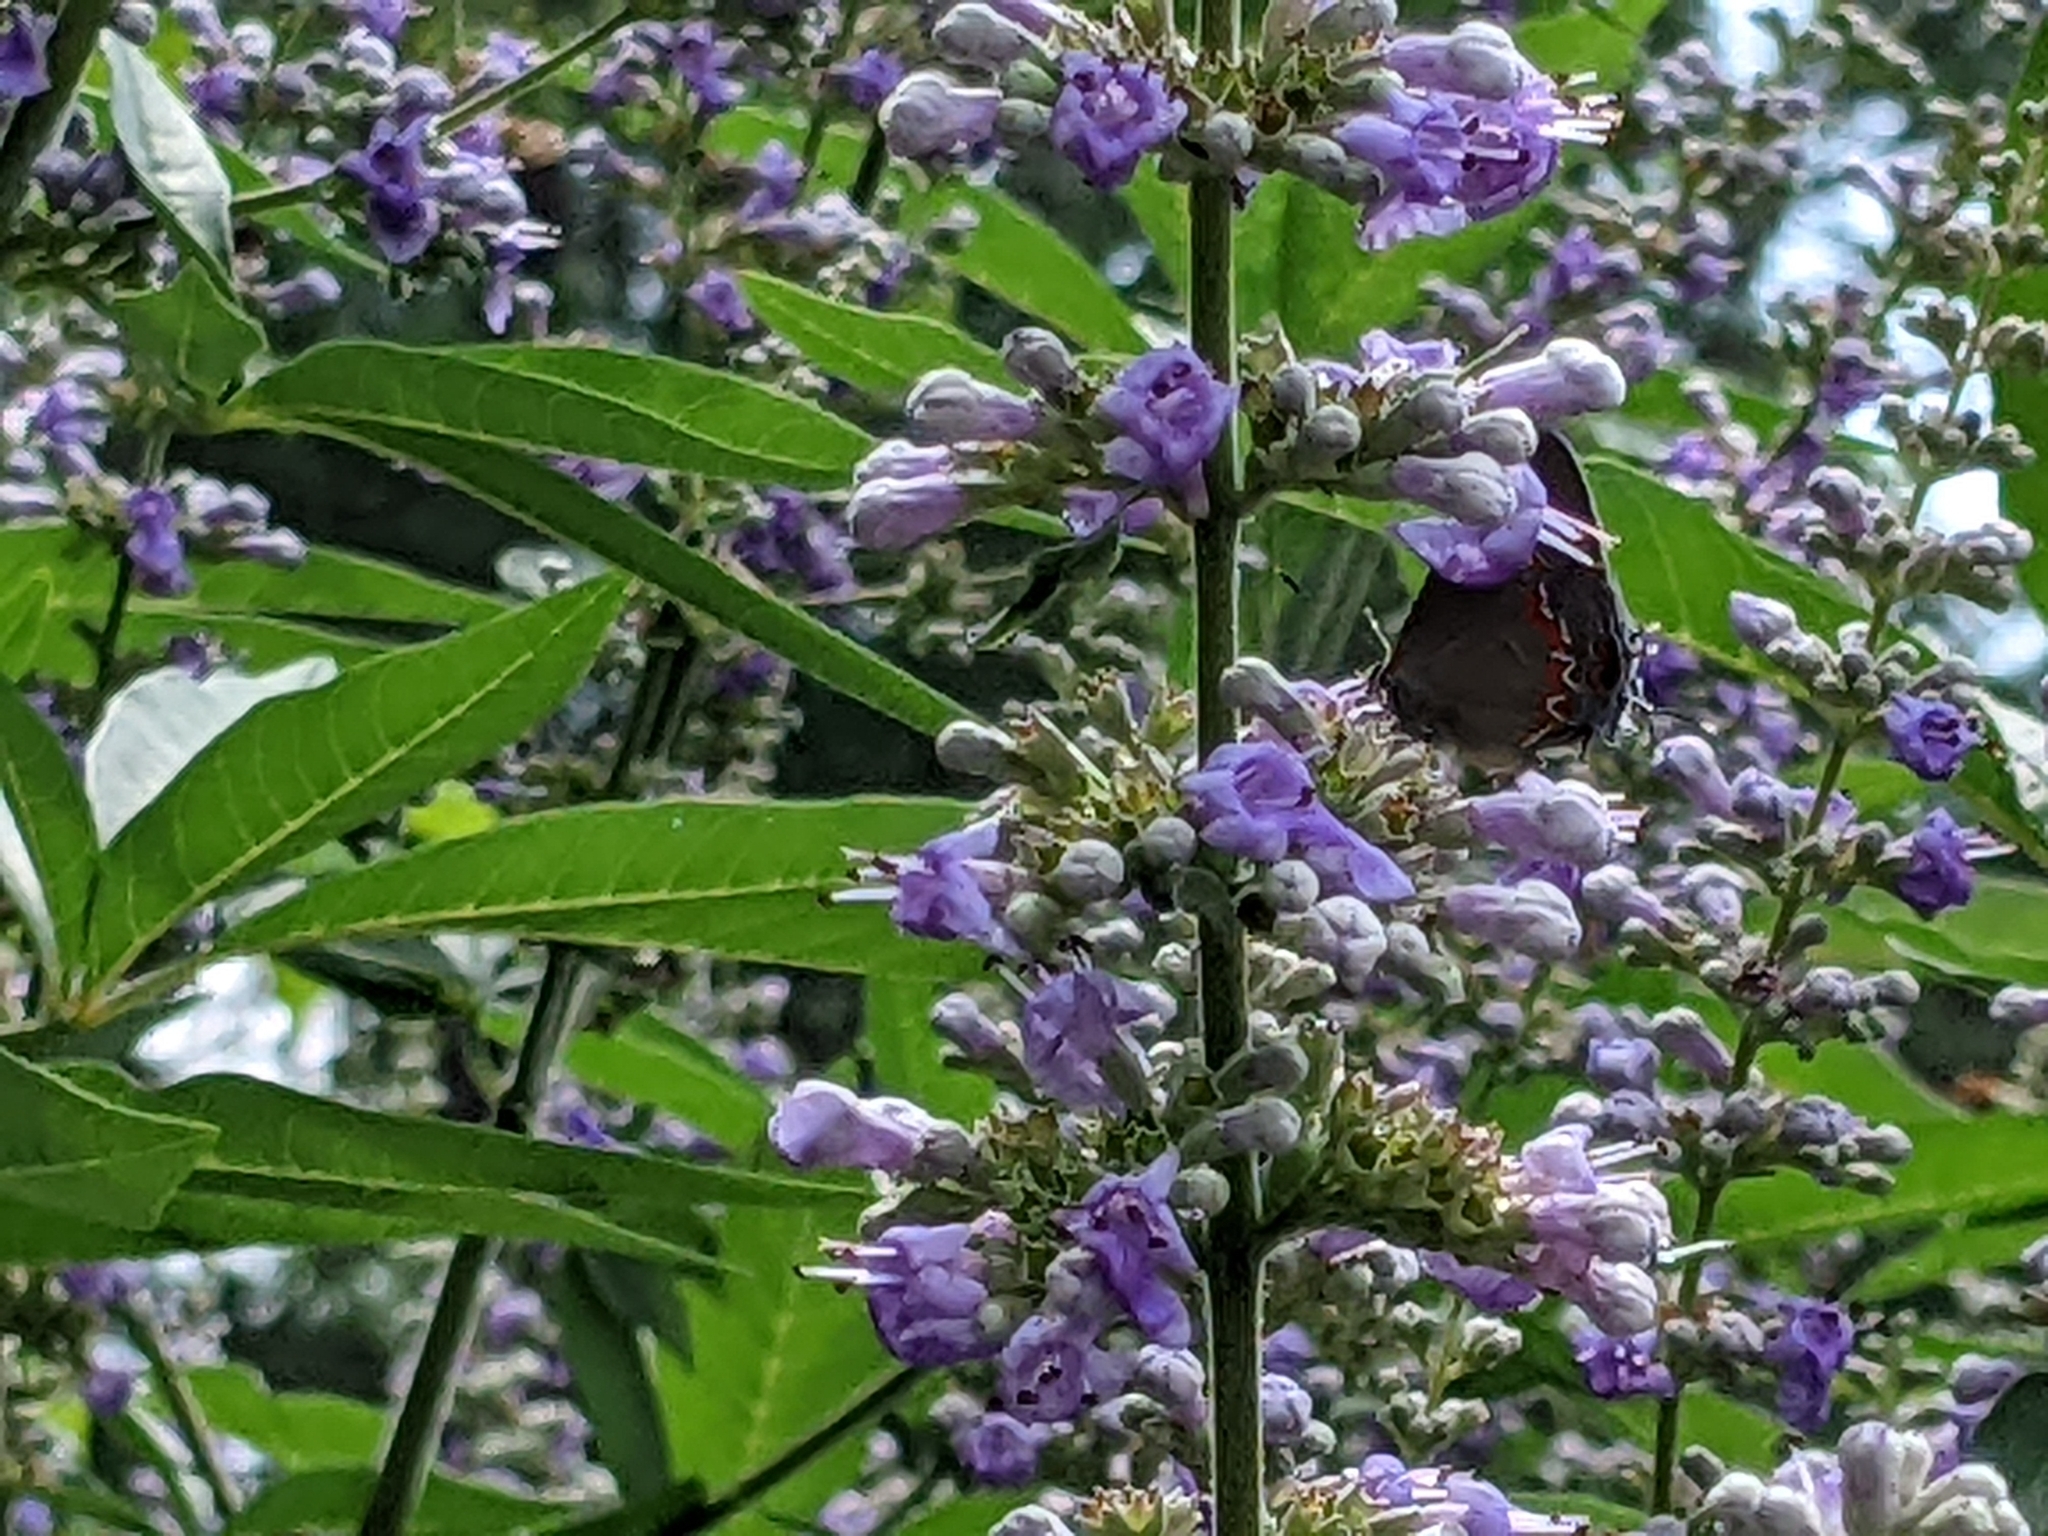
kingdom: Animalia
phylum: Arthropoda
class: Insecta
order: Lepidoptera
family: Lycaenidae
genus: Calycopis
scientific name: Calycopis cecrops
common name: Red-banded hairstreak
